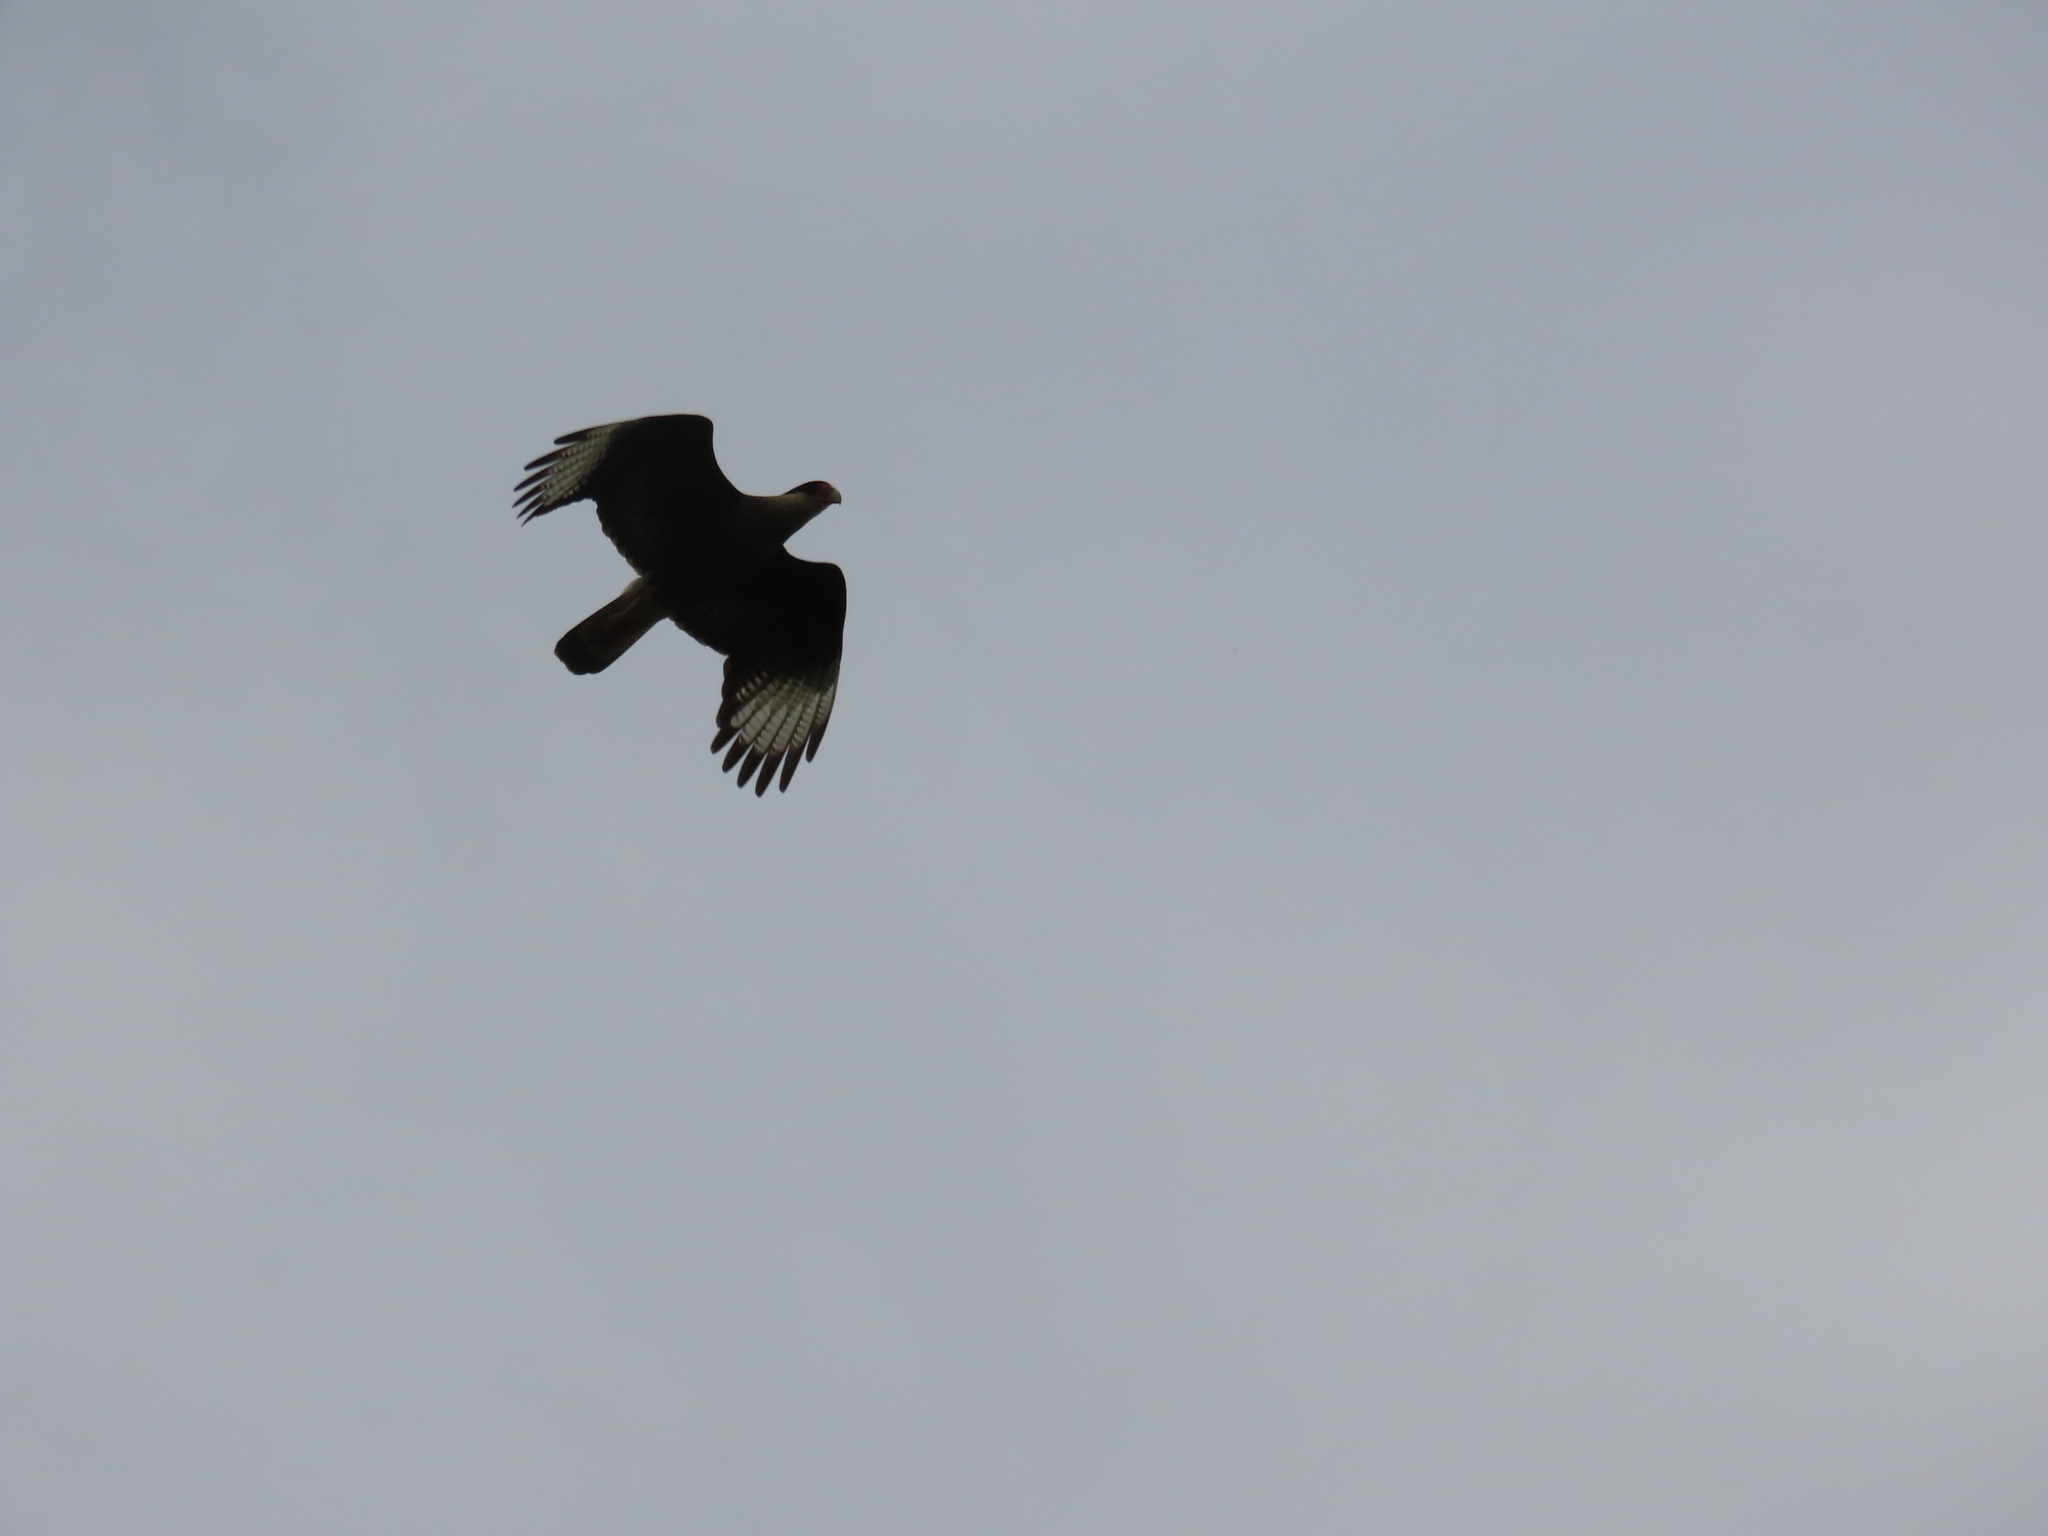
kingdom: Animalia
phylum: Chordata
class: Aves
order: Falconiformes
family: Falconidae
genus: Caracara
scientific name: Caracara plancus
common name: Southern caracara
